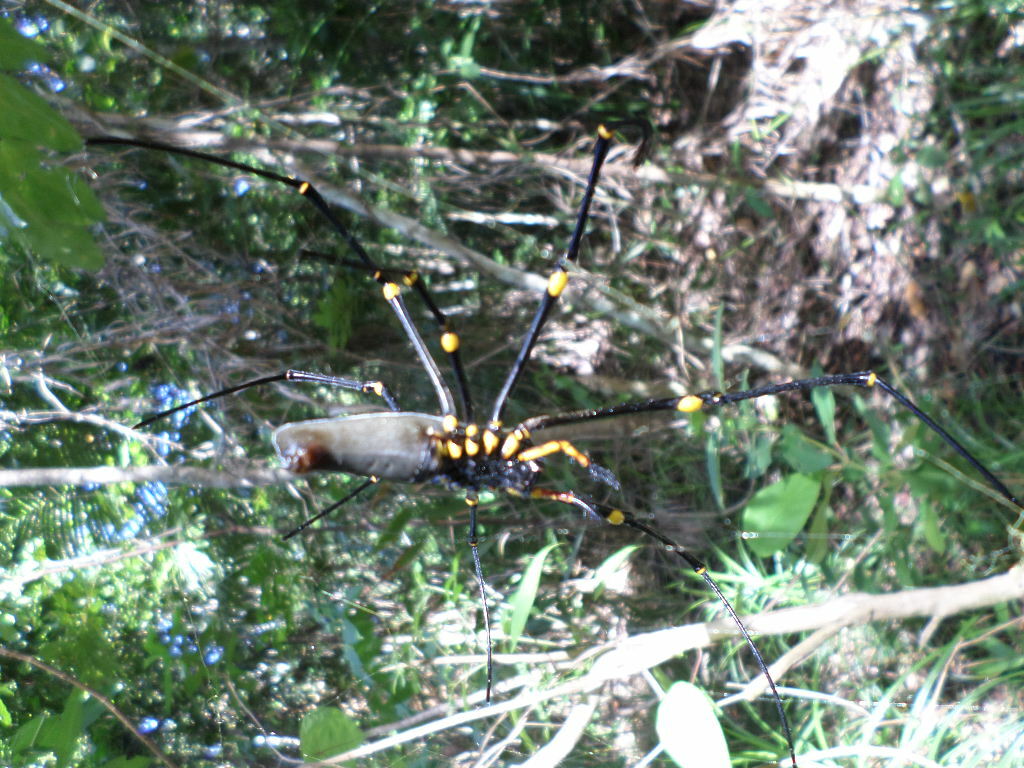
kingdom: Animalia
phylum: Arthropoda
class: Arachnida
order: Araneae
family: Araneidae
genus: Nephila
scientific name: Nephila pilipes
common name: Giant golden orb weaver
